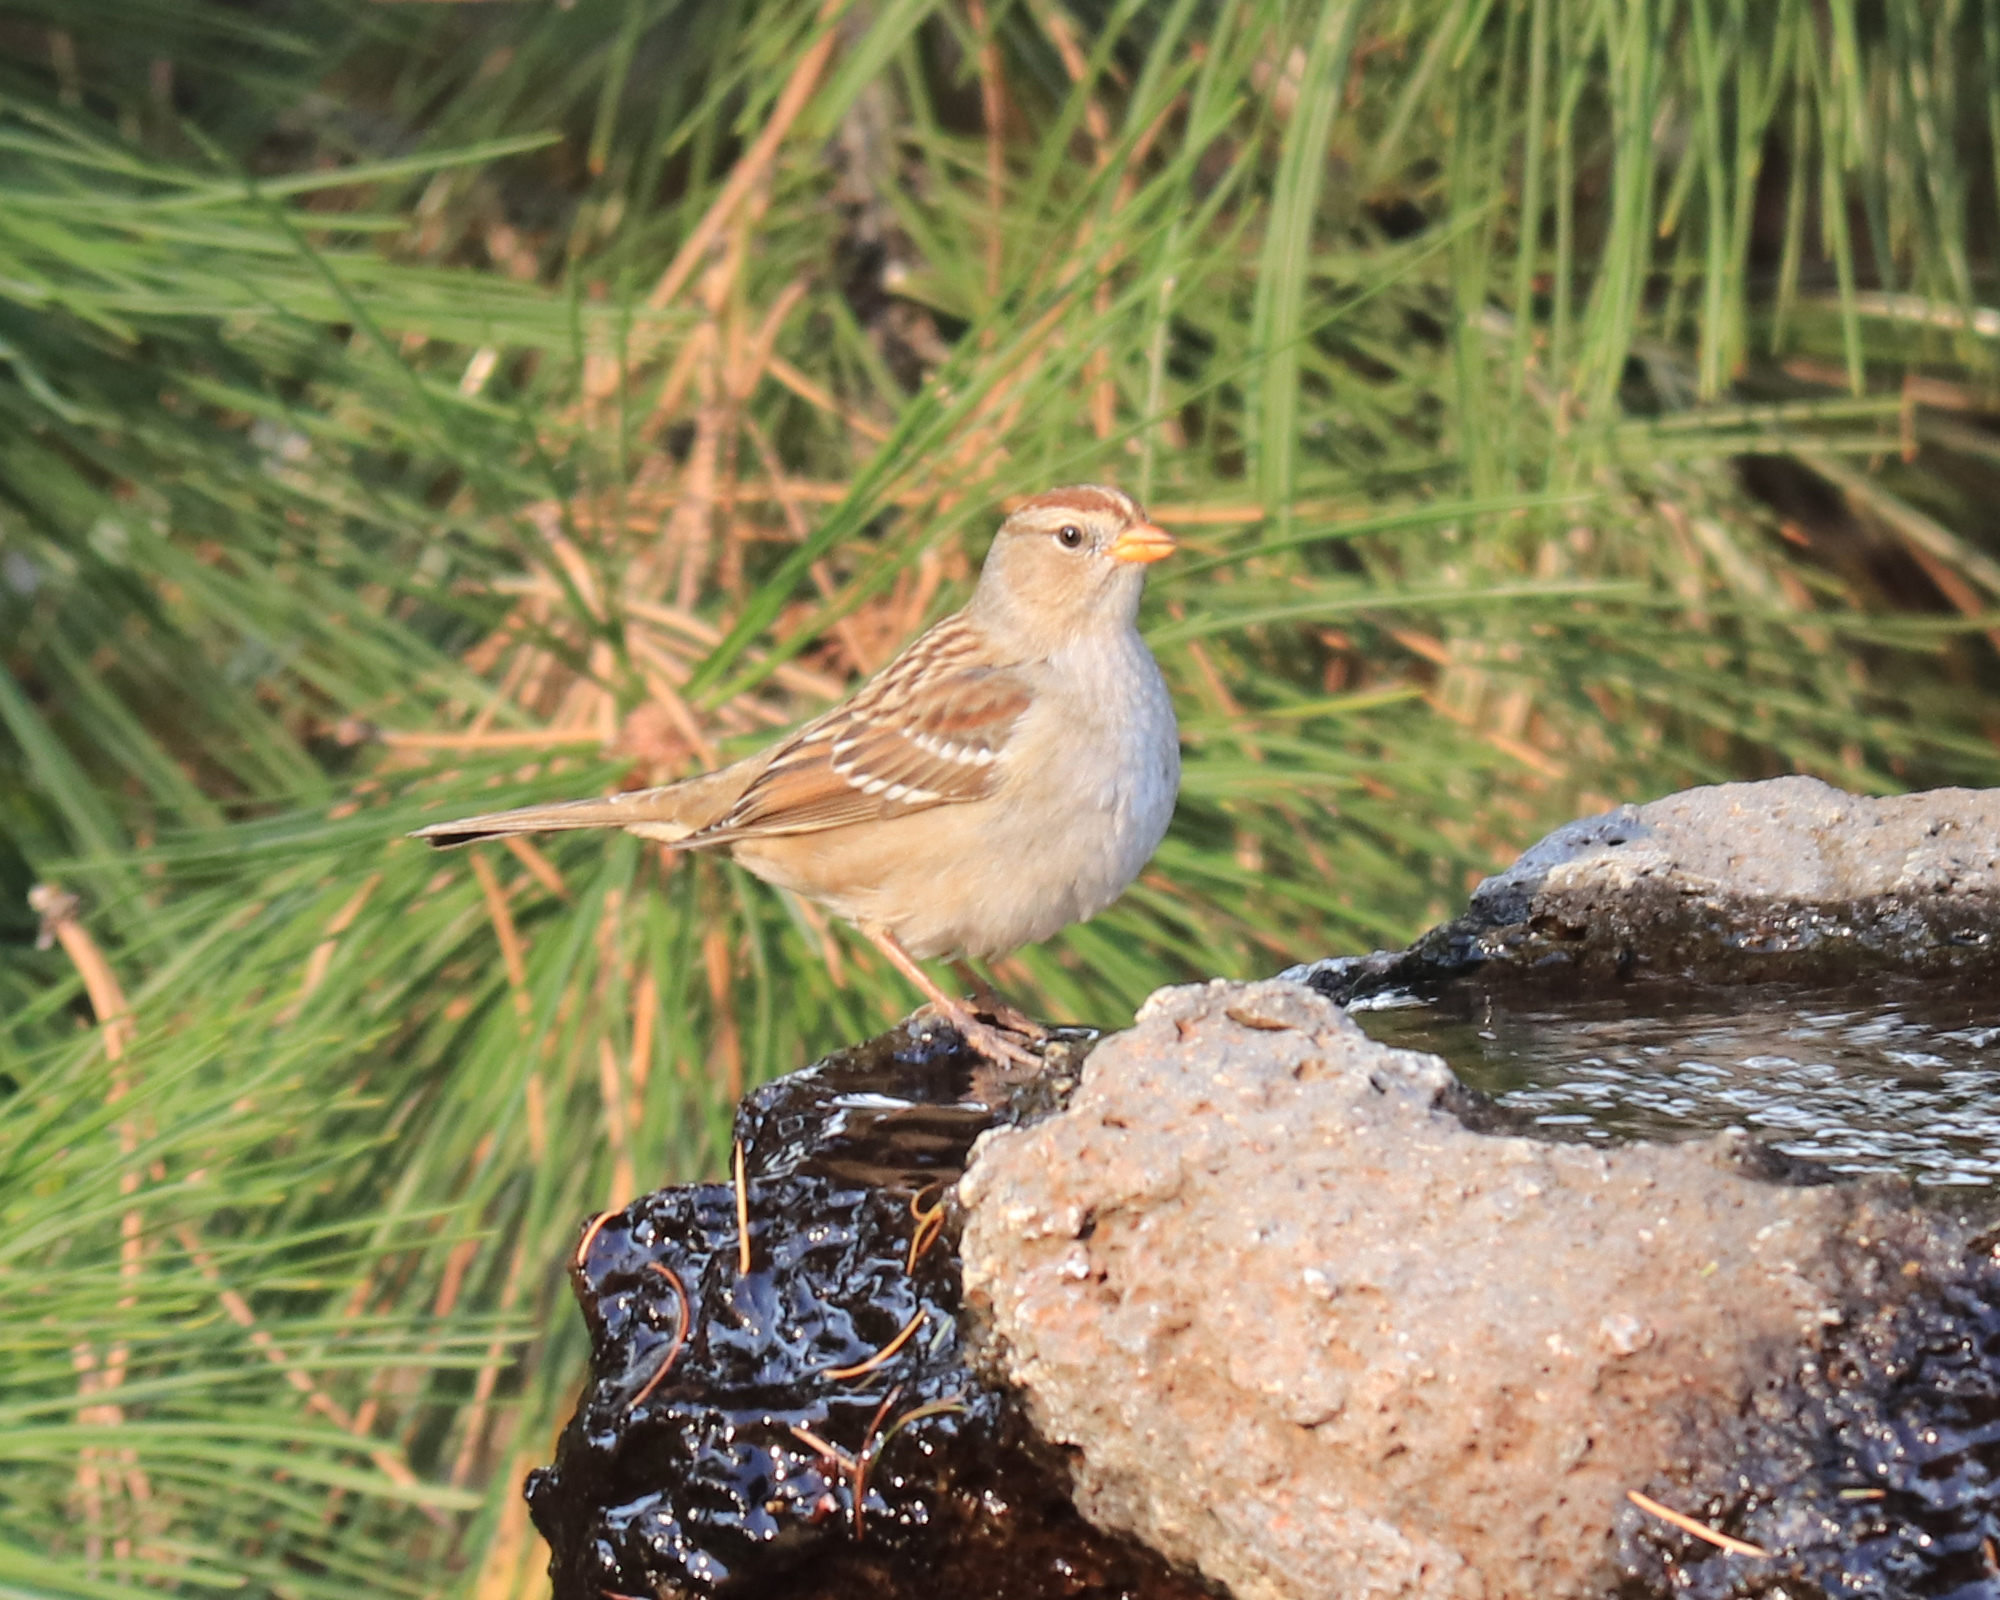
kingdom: Animalia
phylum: Chordata
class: Aves
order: Passeriformes
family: Passerellidae
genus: Zonotrichia
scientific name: Zonotrichia leucophrys
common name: White-crowned sparrow
